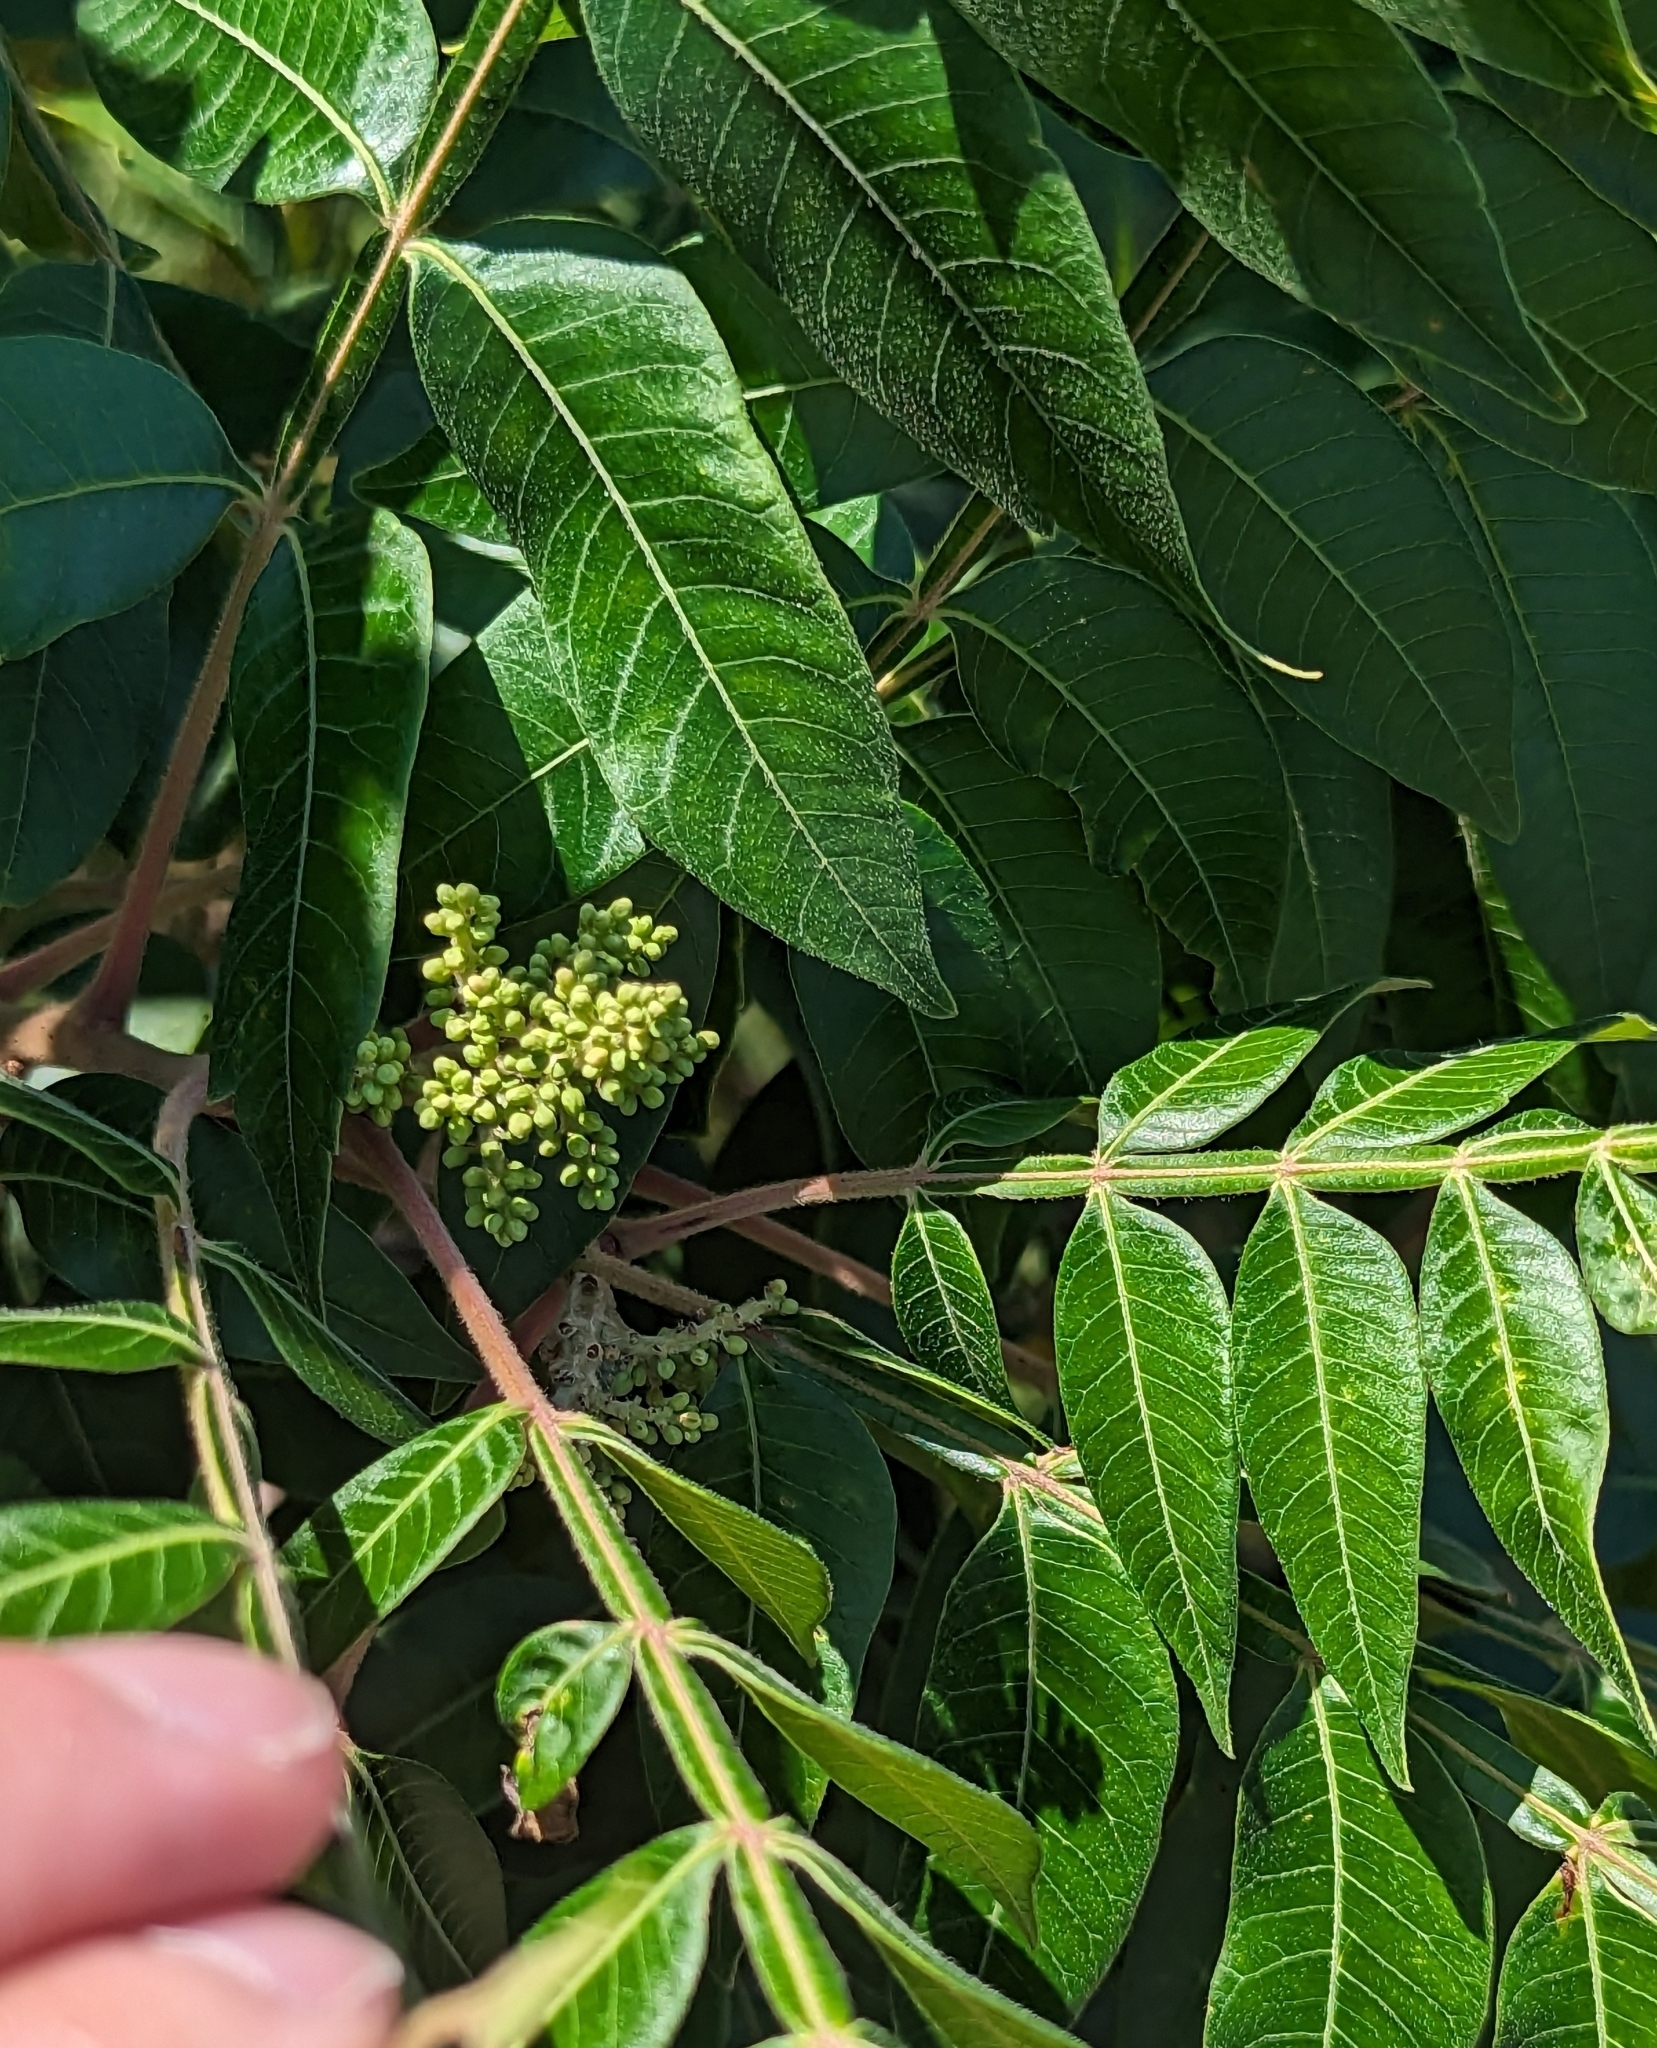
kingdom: Plantae
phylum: Tracheophyta
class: Magnoliopsida
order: Sapindales
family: Anacardiaceae
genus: Rhus
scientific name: Rhus copallina
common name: Shining sumac
